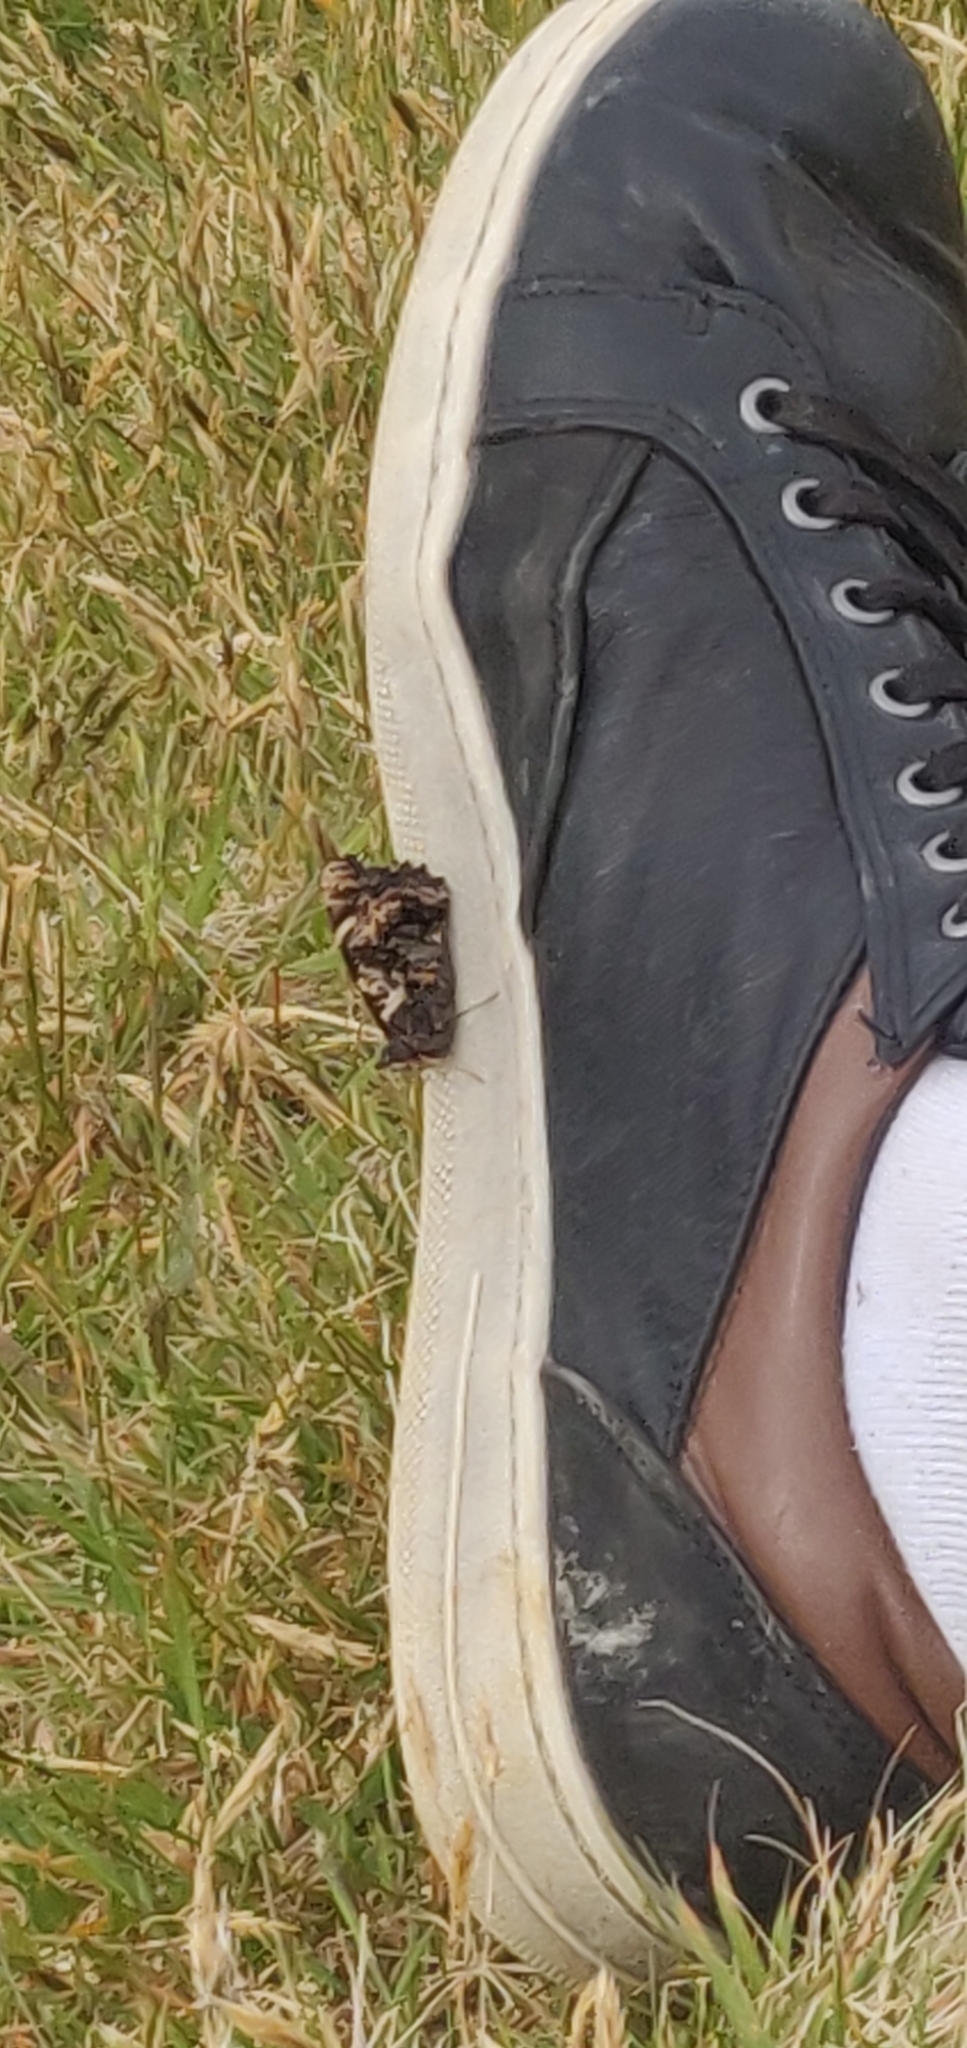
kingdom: Animalia
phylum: Arthropoda
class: Insecta
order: Lepidoptera
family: Nymphalidae
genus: Vanessa
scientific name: Vanessa gonerilla
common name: New zealand red admiral
